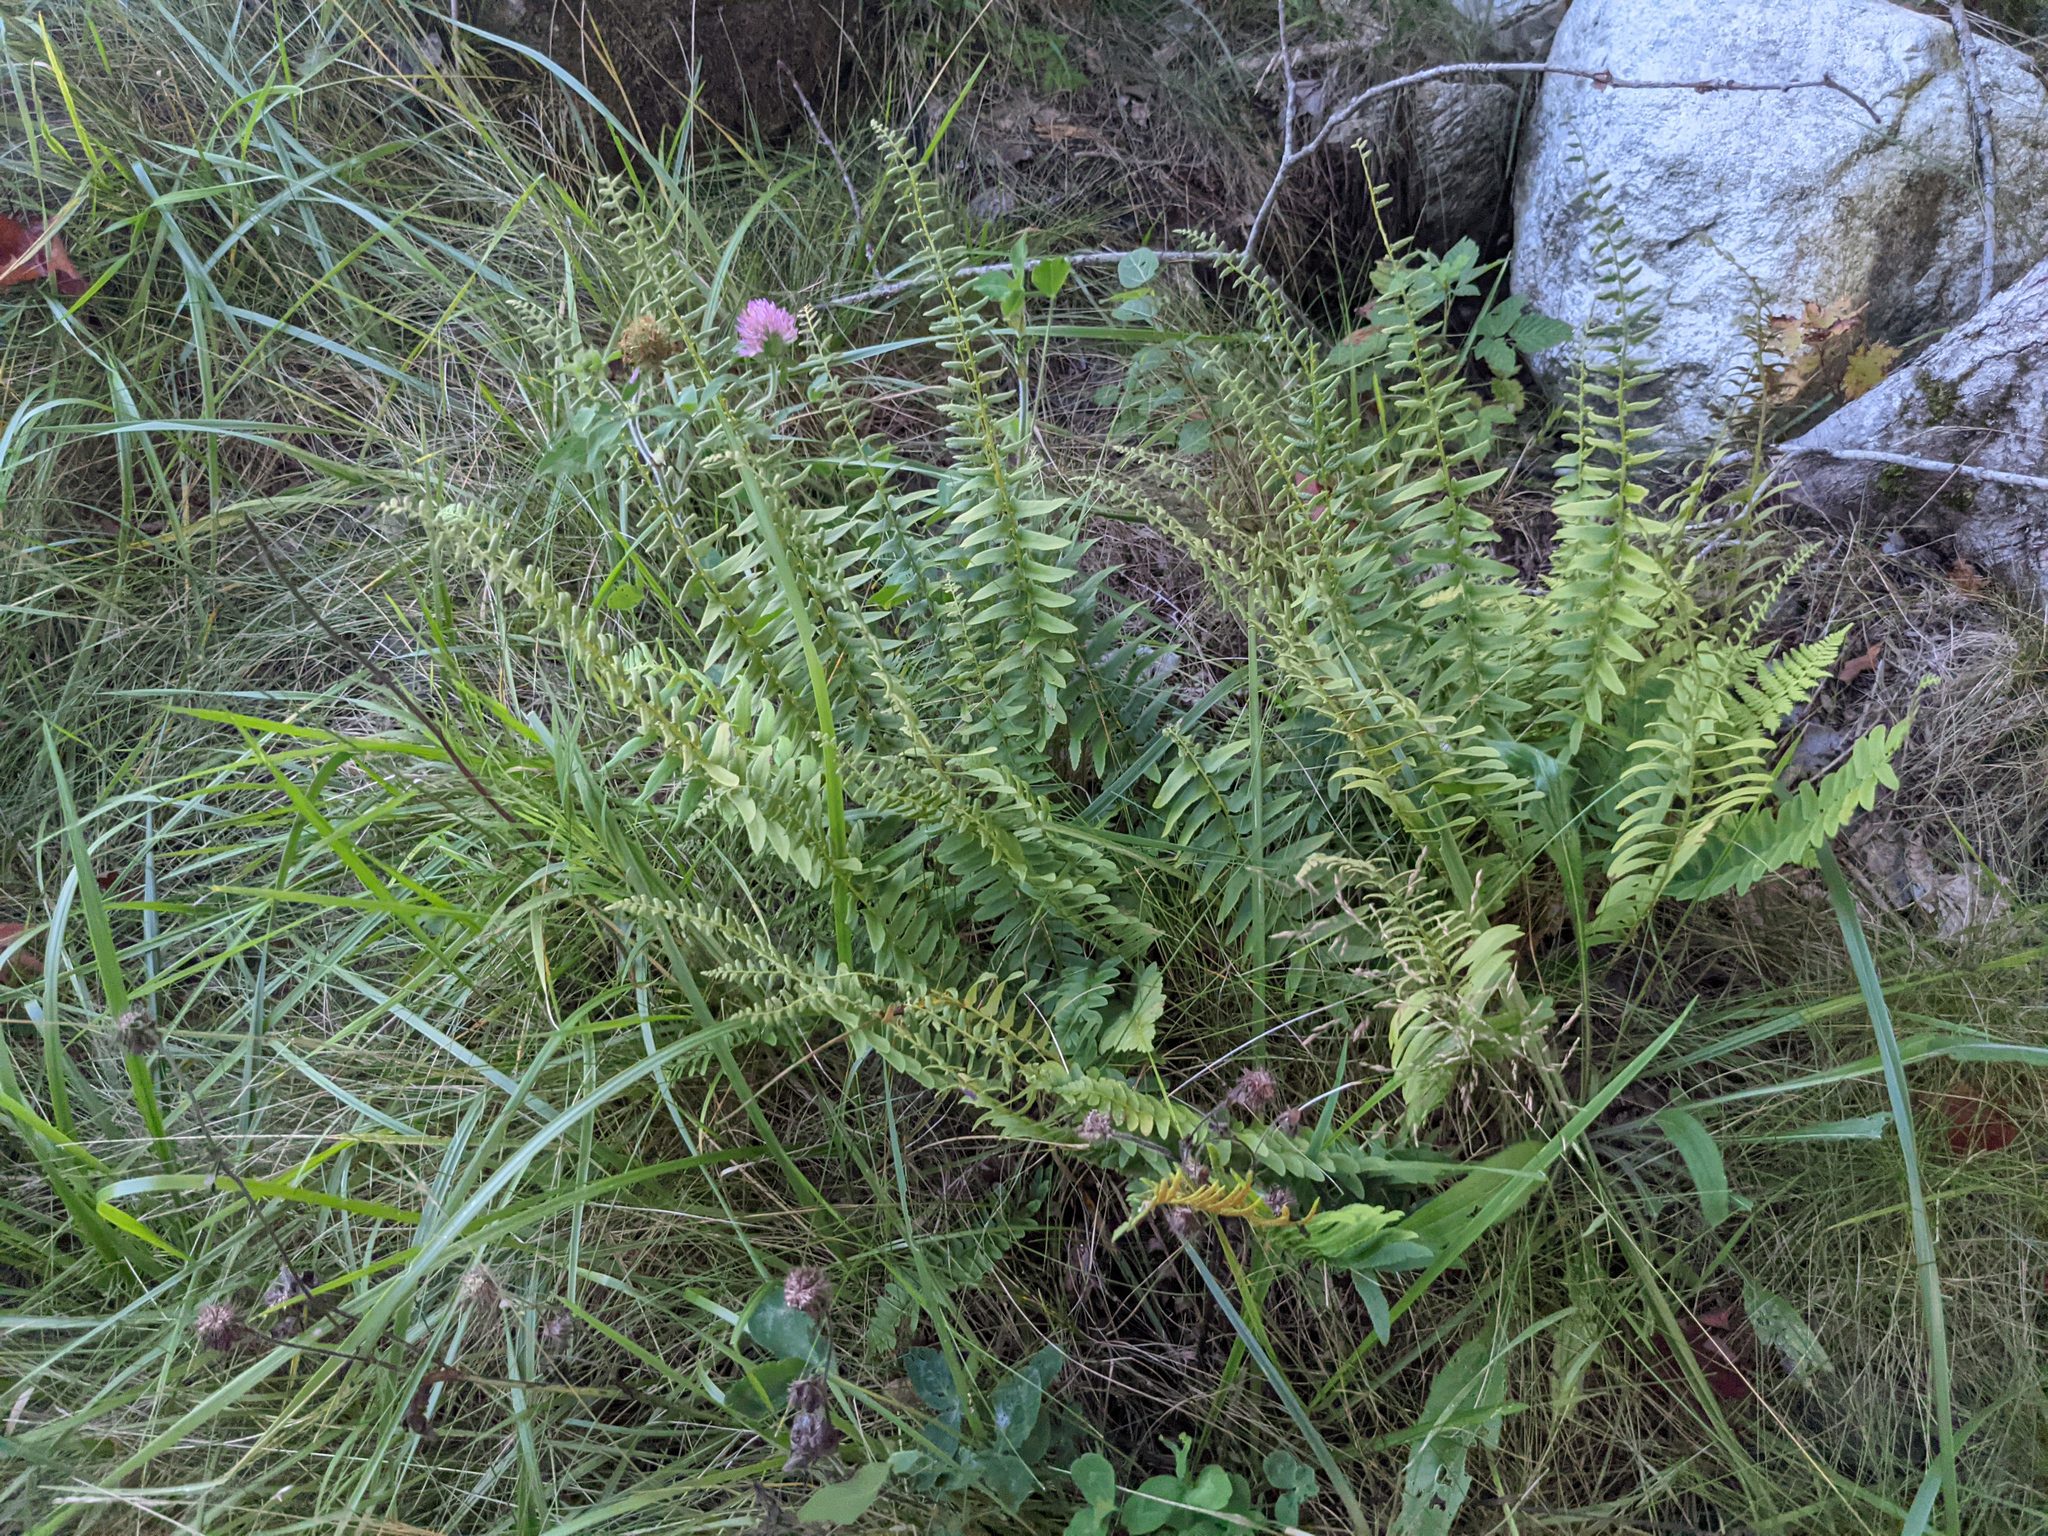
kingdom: Plantae
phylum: Tracheophyta
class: Polypodiopsida
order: Polypodiales
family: Dryopteridaceae
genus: Polystichum
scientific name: Polystichum acrostichoides
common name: Christmas fern
